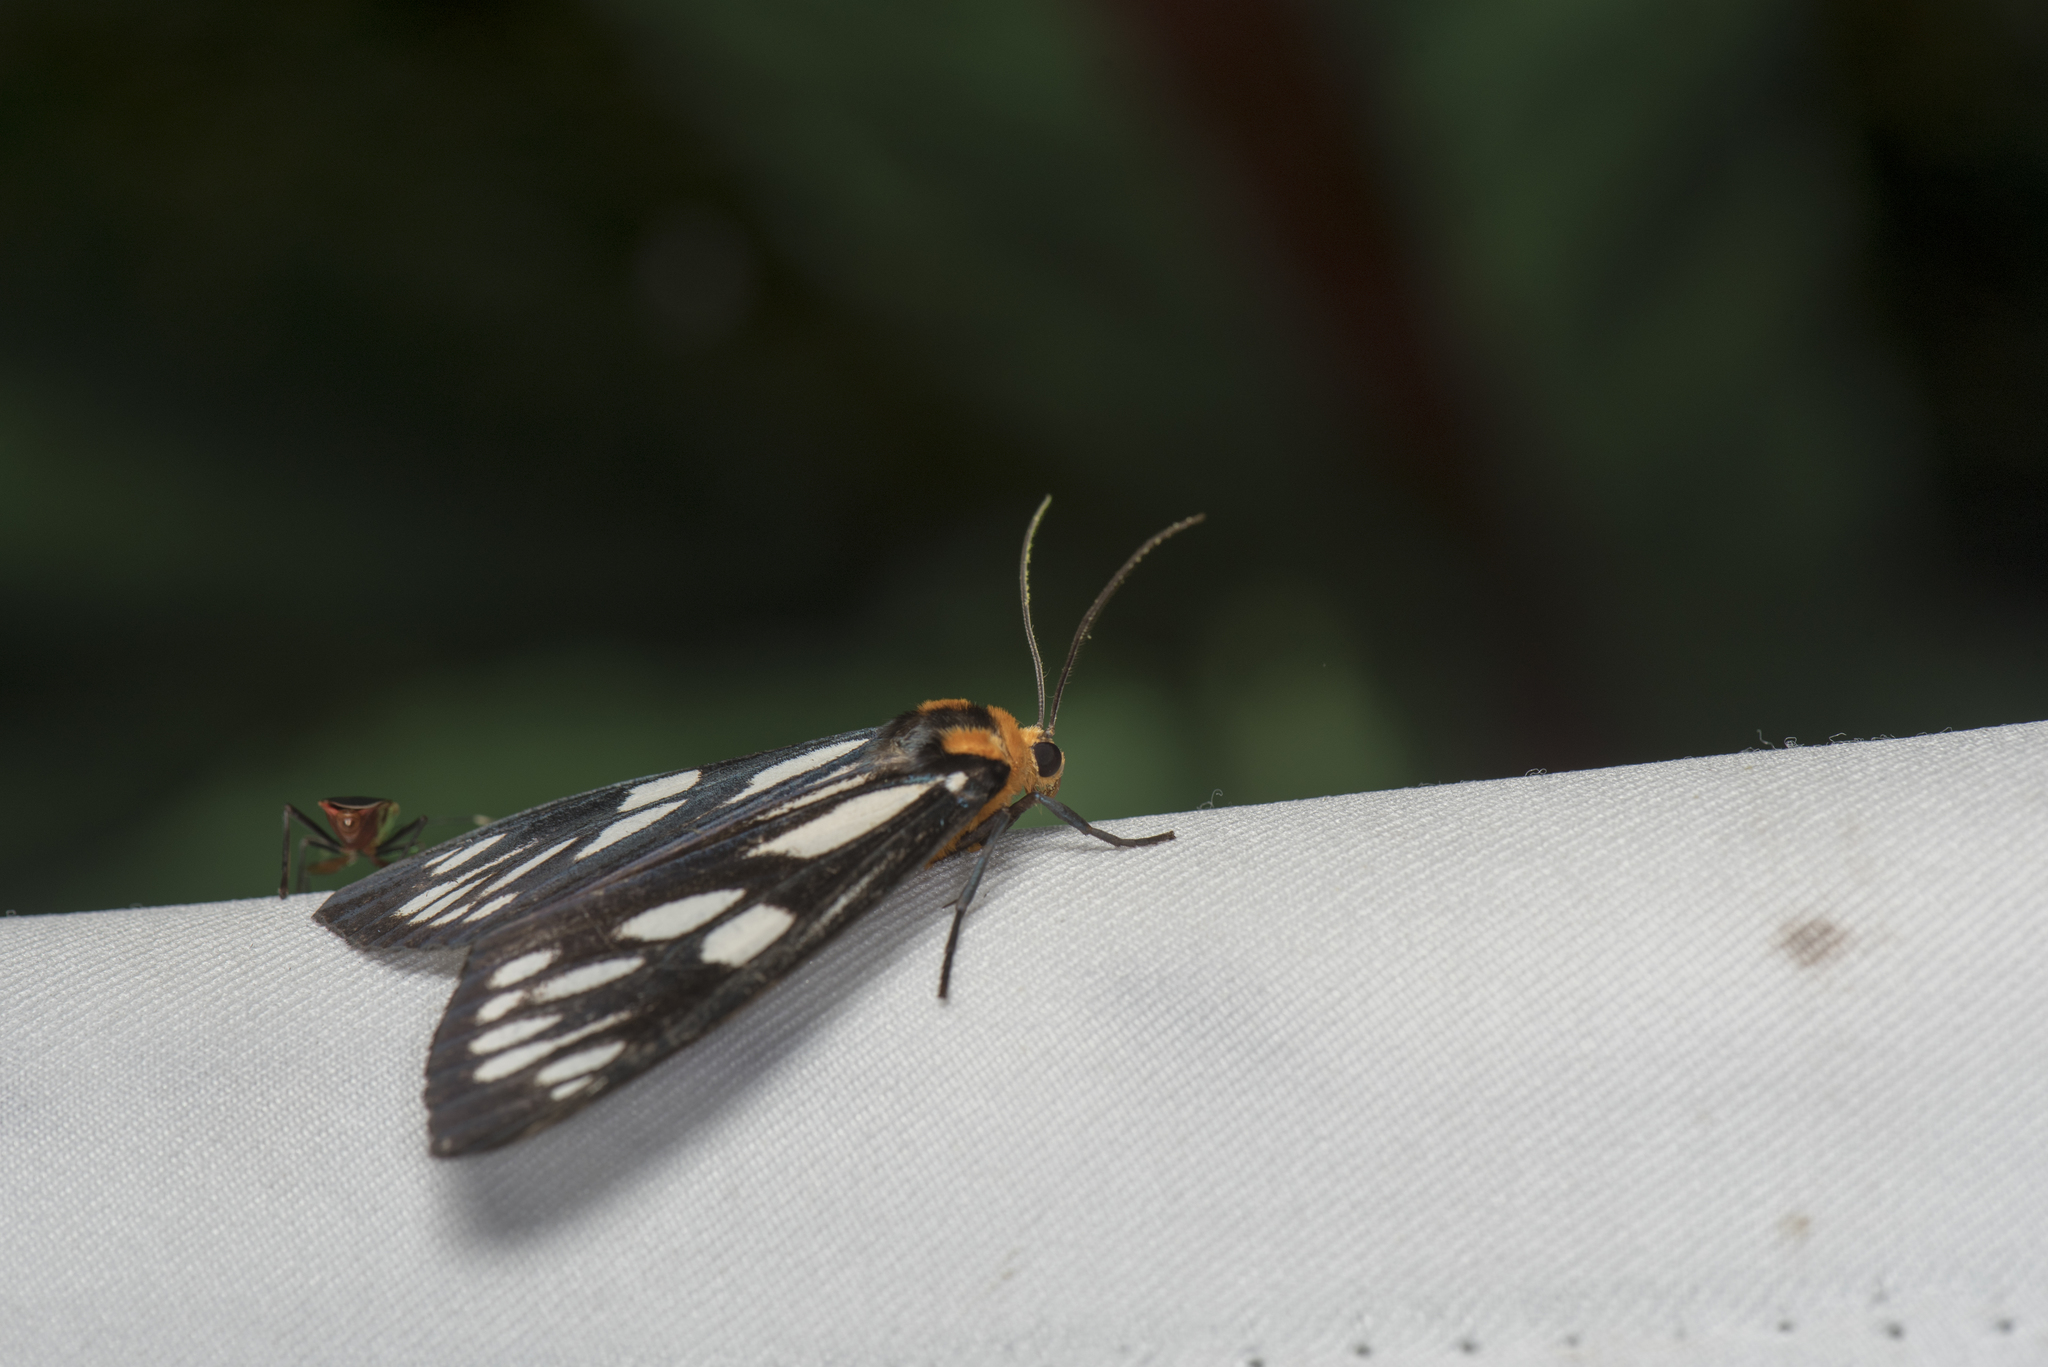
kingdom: Animalia
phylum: Arthropoda
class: Insecta
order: Lepidoptera
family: Erebidae
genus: Macrobrochis
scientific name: Macrobrochis gigas
